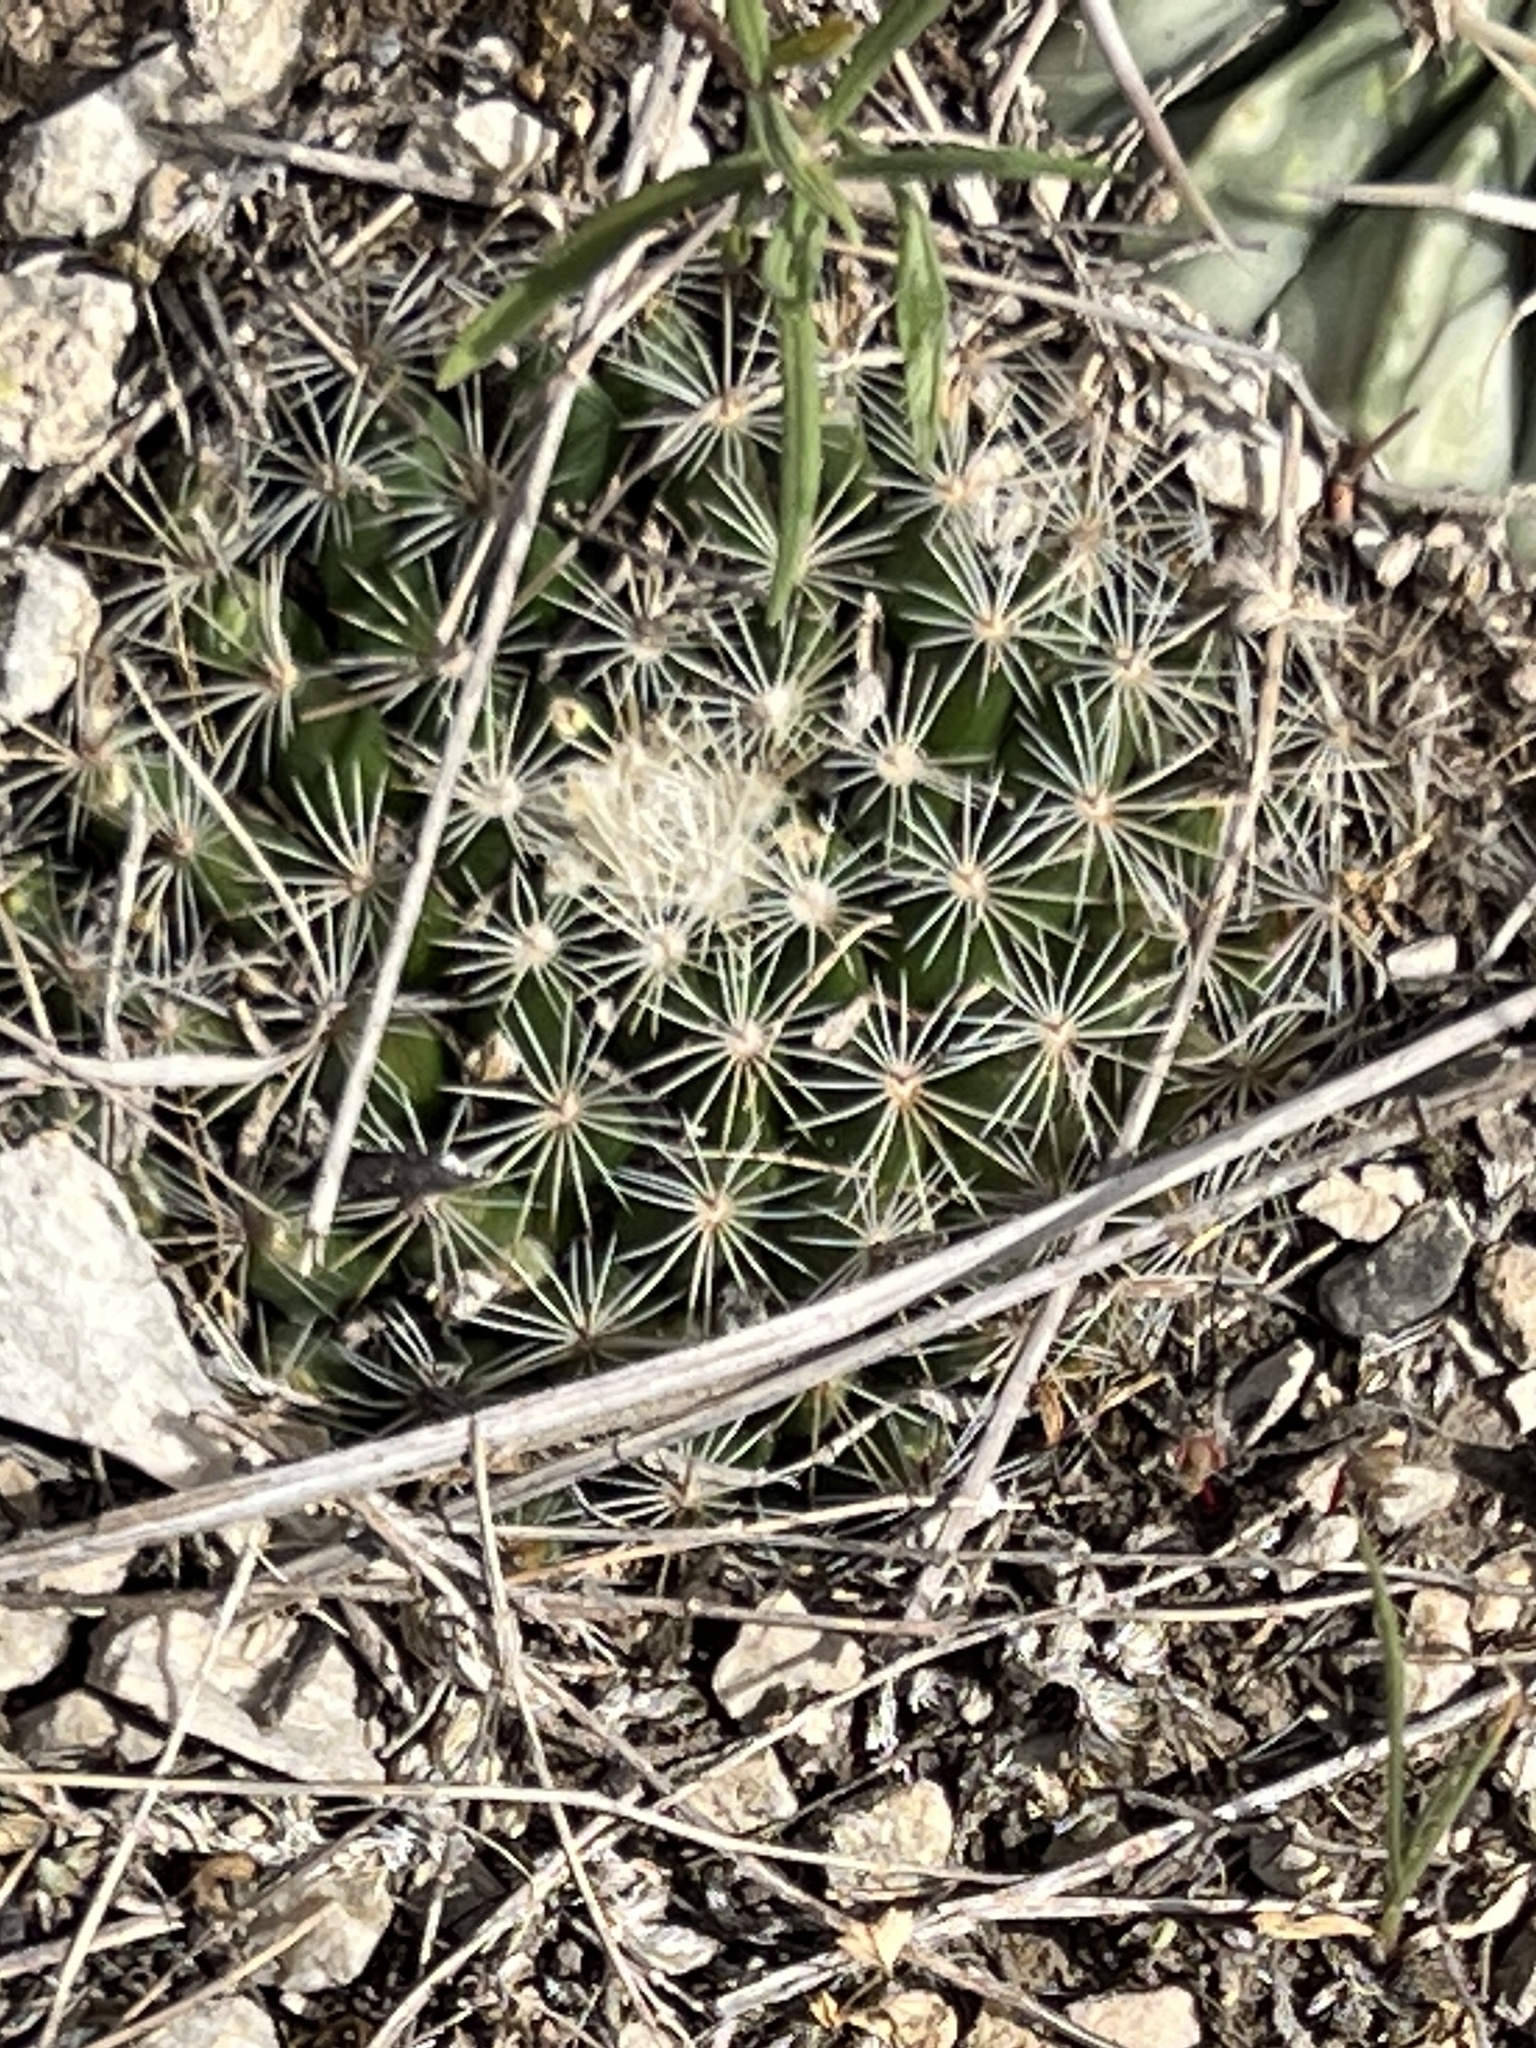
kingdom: Plantae
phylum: Tracheophyta
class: Magnoliopsida
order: Caryophyllales
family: Cactaceae
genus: Mammillaria
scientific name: Mammillaria heyderi
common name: Little nipple cactus
